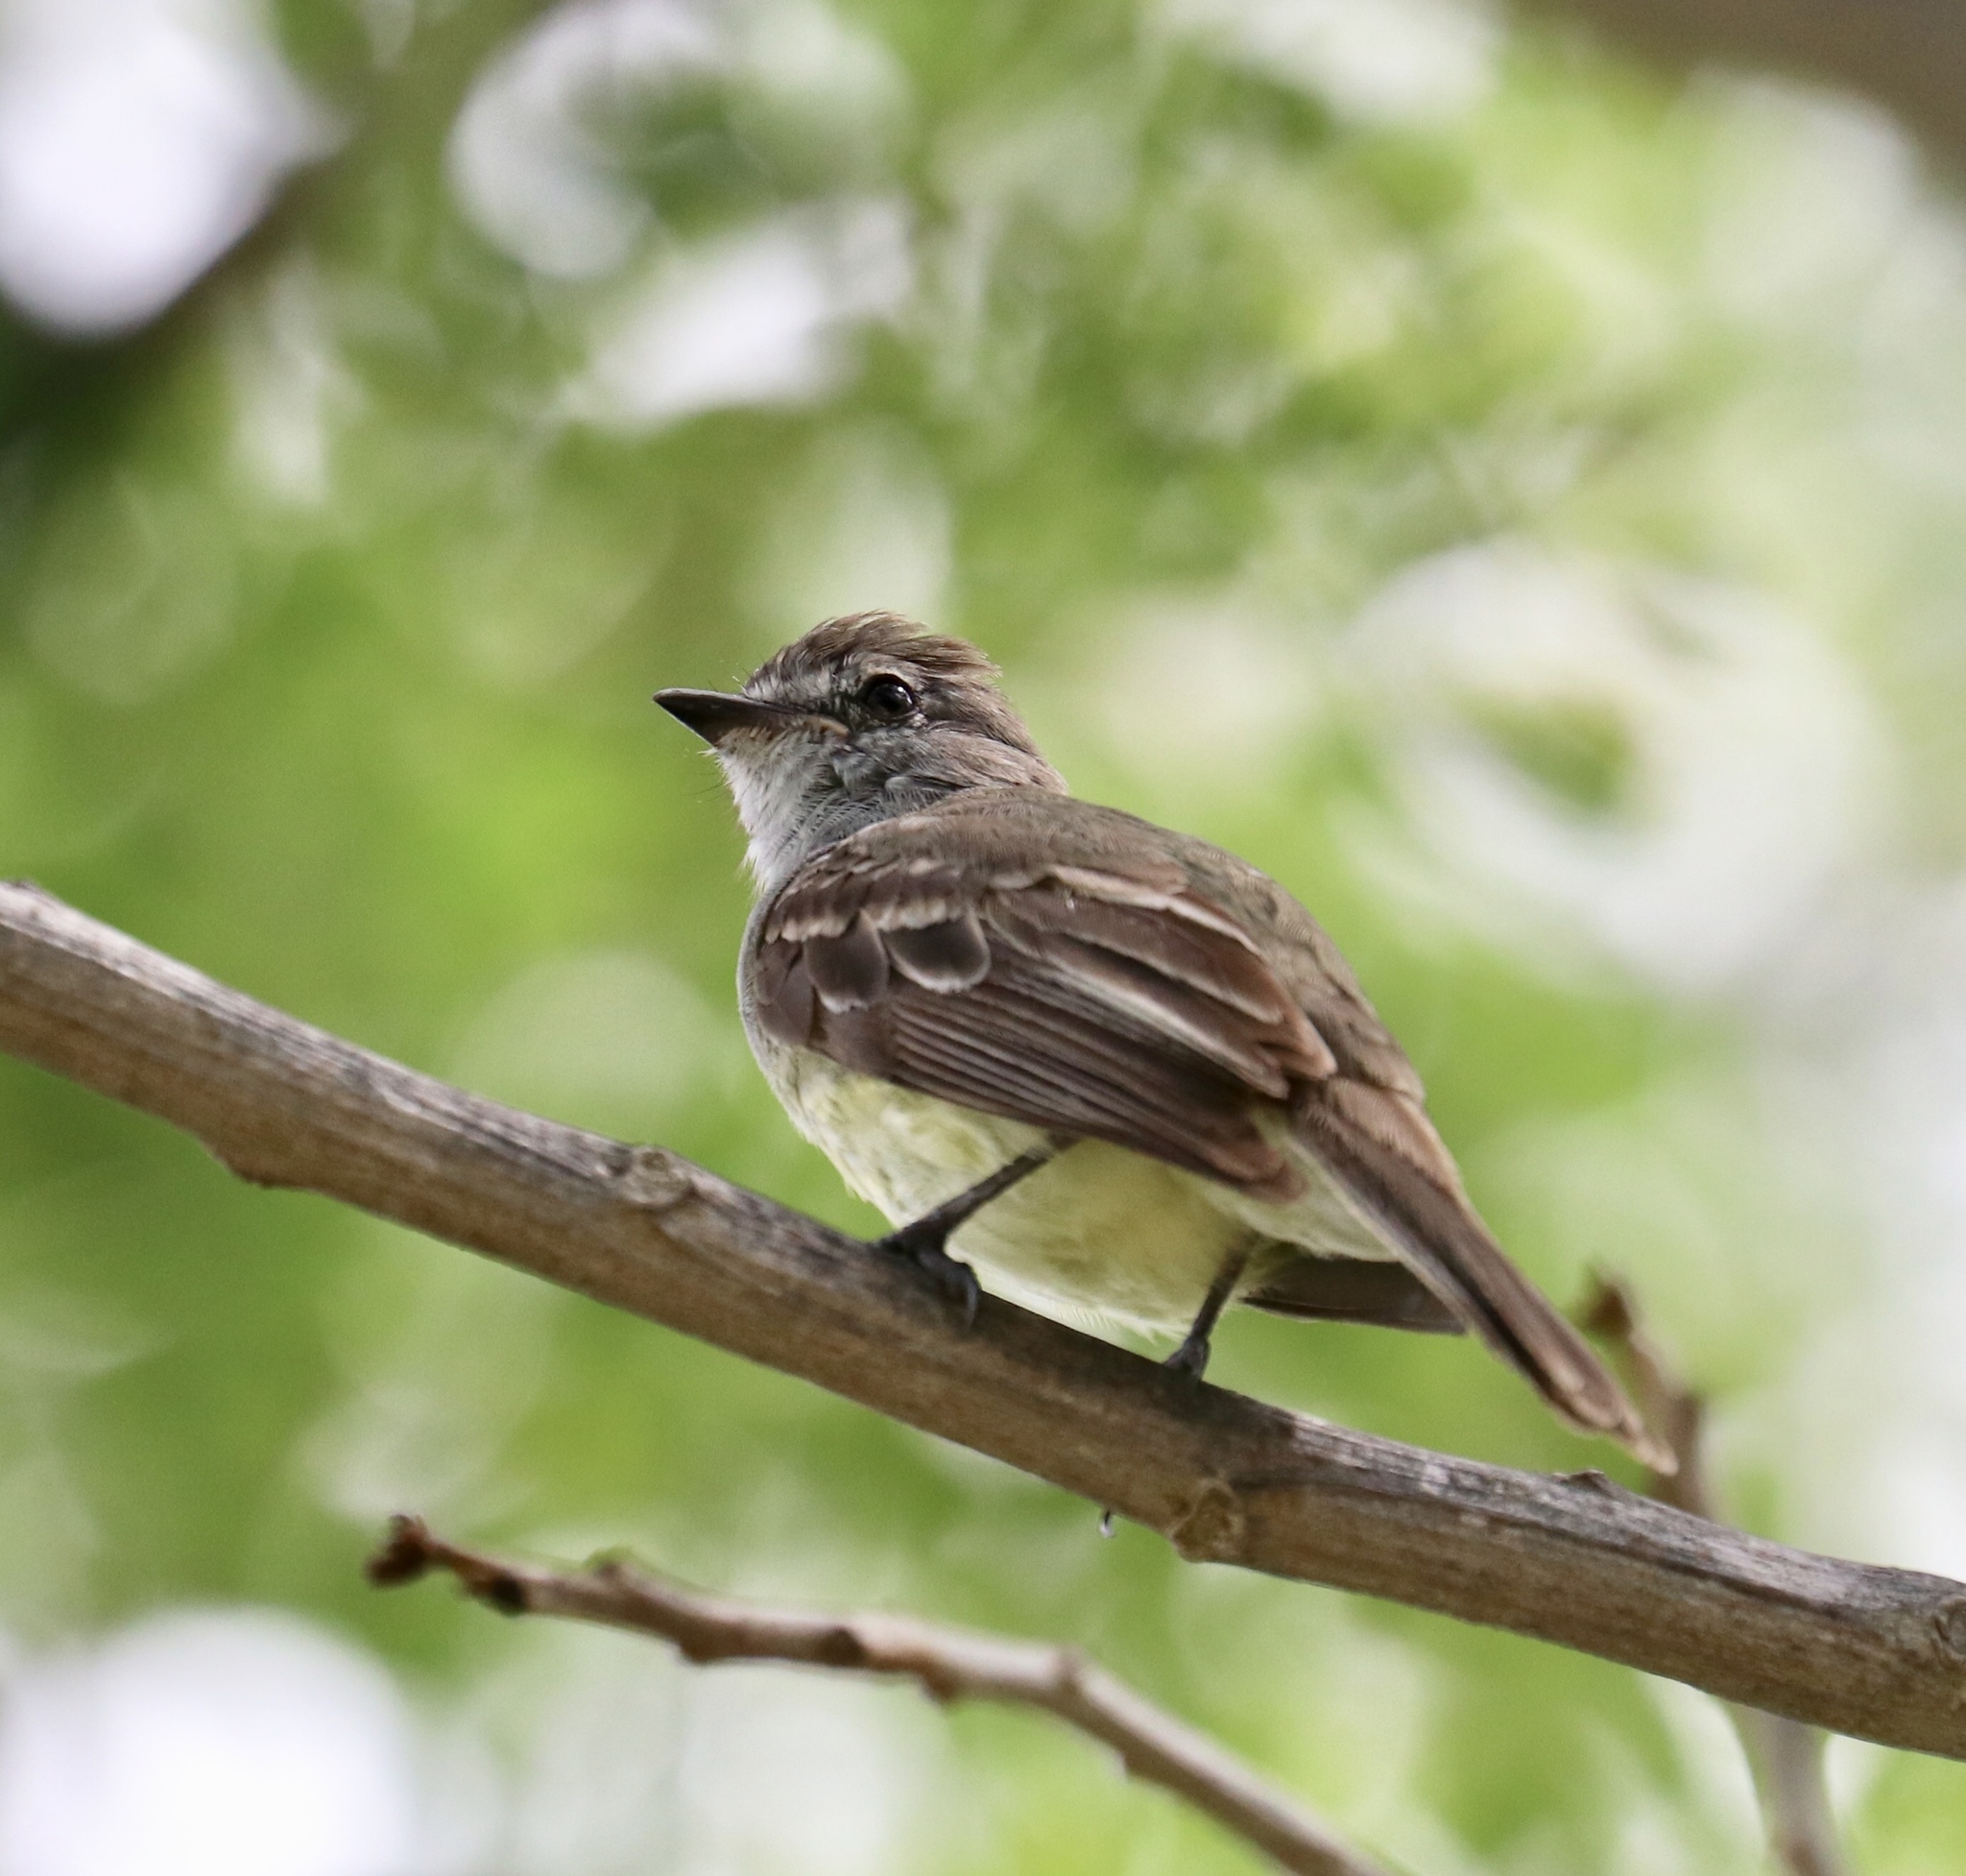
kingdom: Animalia
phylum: Chordata
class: Aves
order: Passeriformes
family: Tyrannidae
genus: Sublegatus
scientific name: Sublegatus arenarum
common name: Northern scrub-flycatcher
